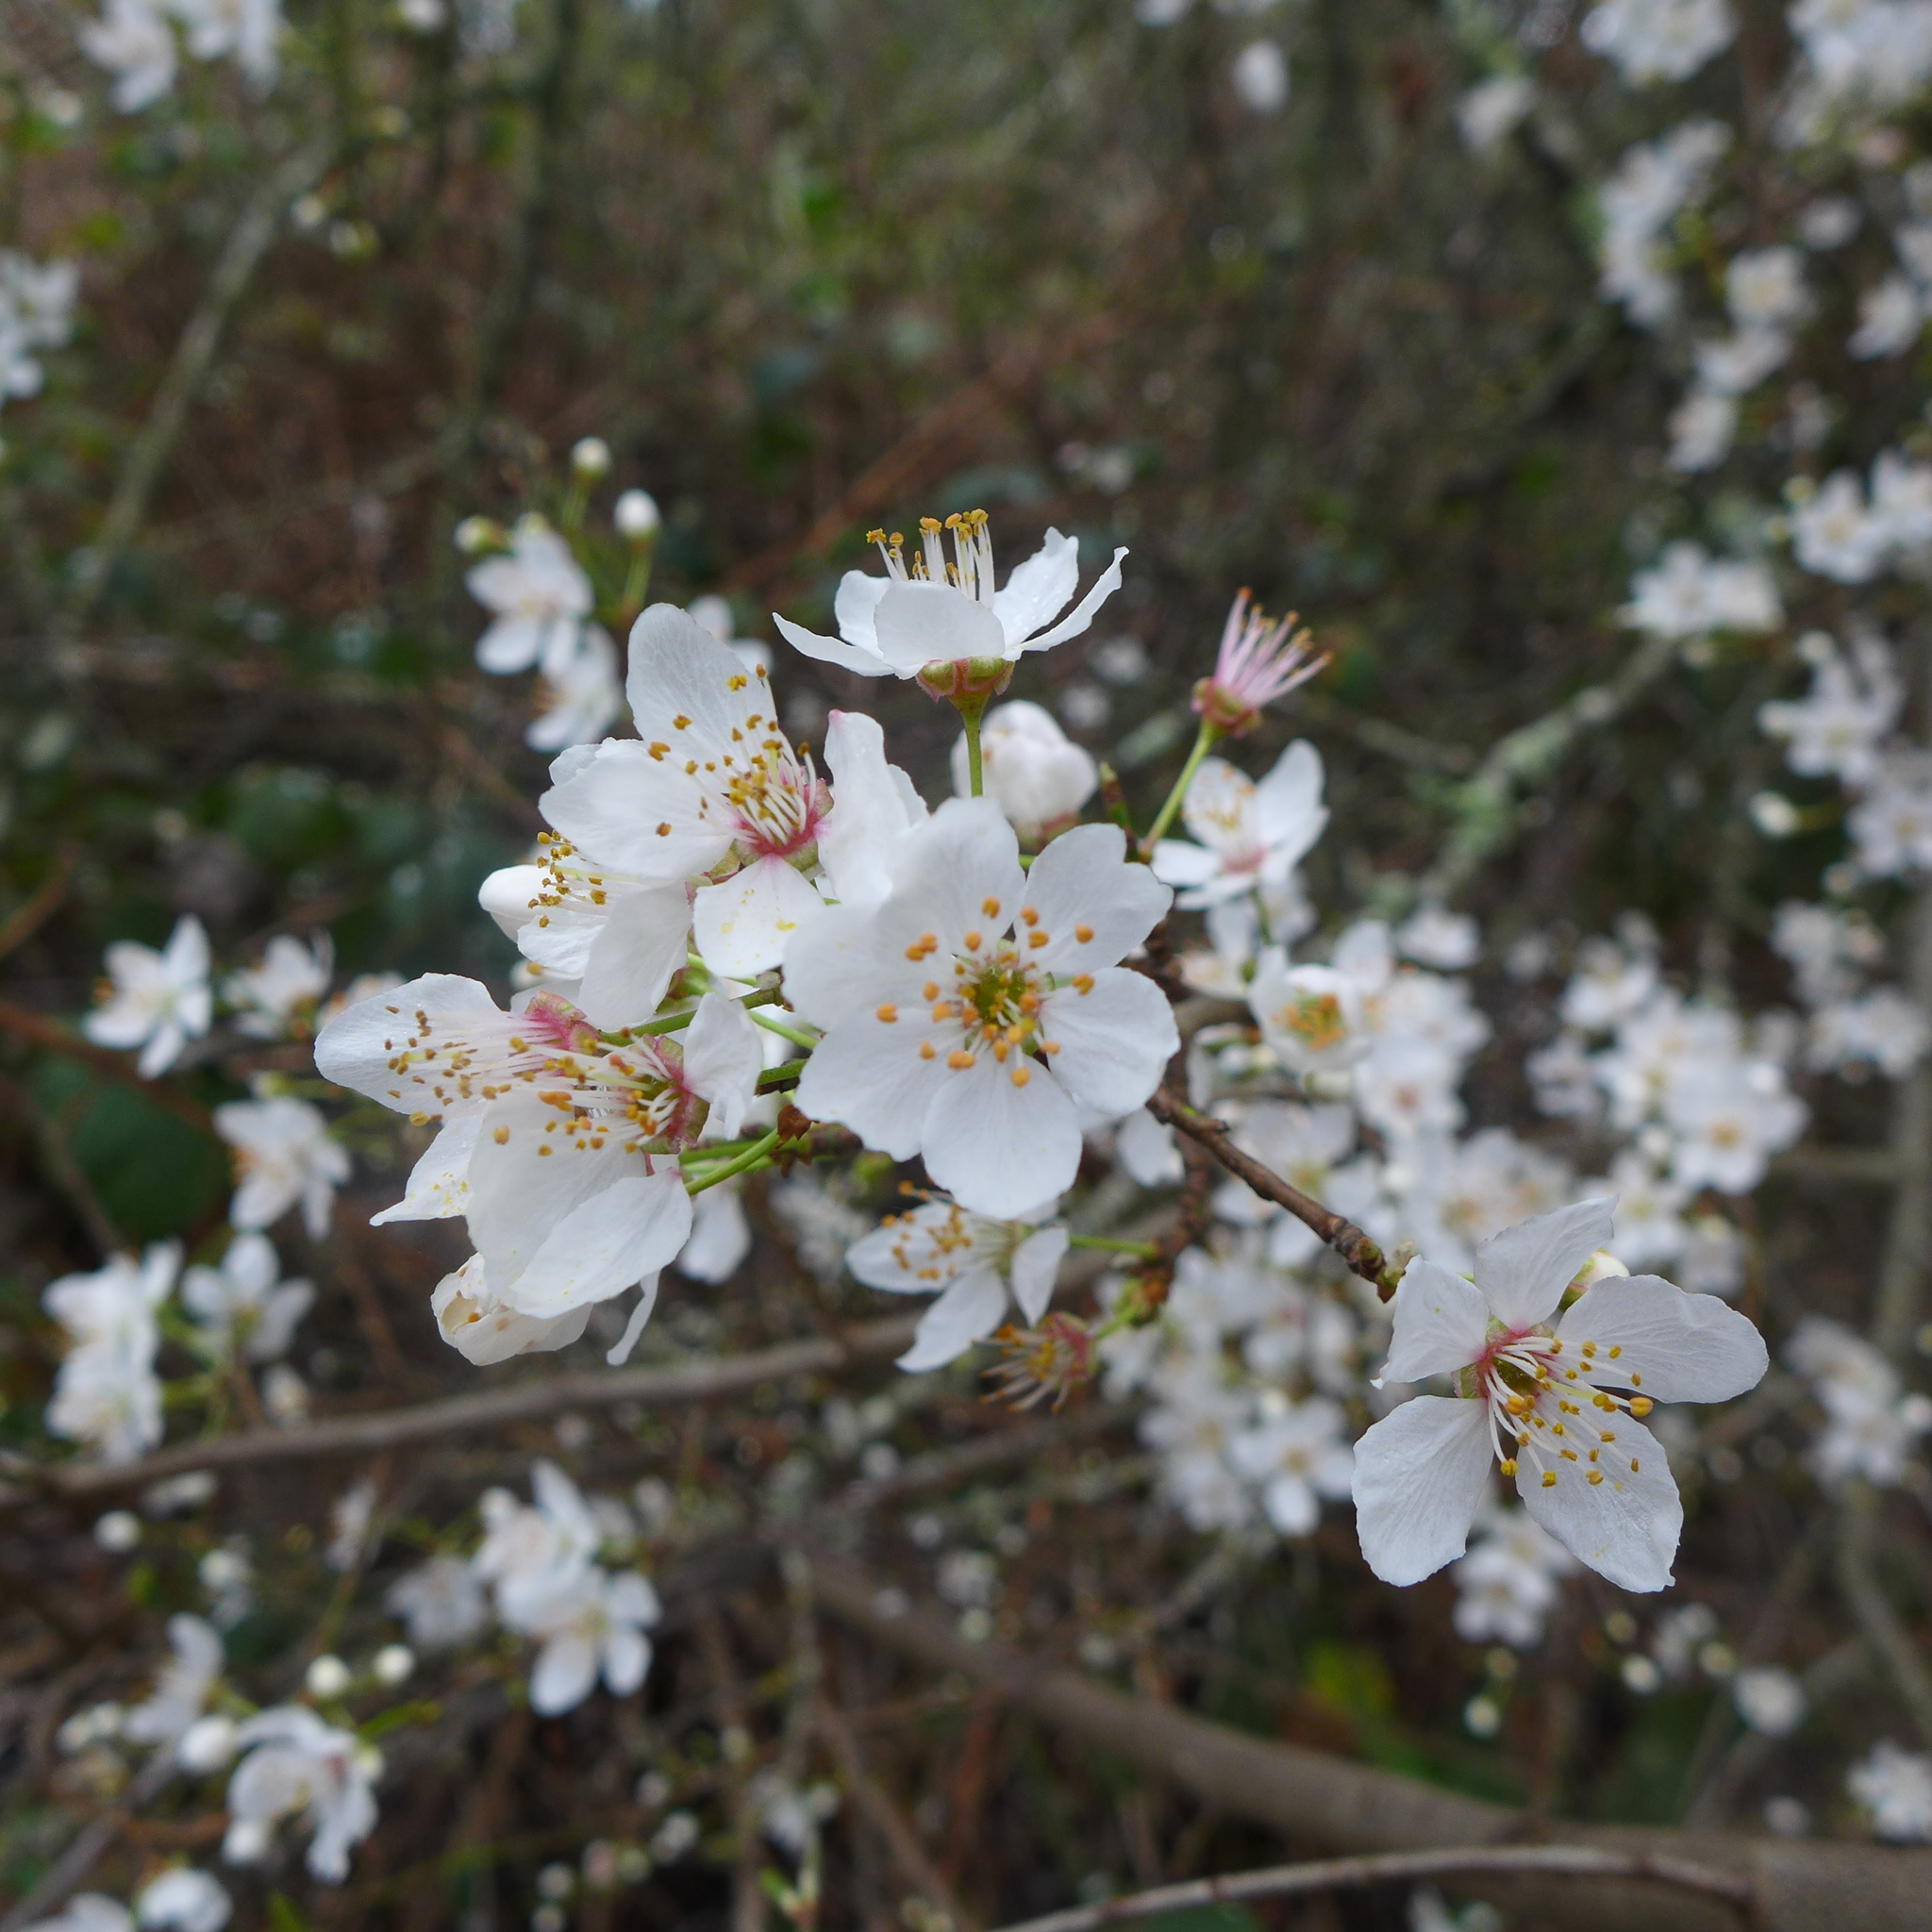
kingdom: Plantae
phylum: Tracheophyta
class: Magnoliopsida
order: Rosales
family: Rosaceae
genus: Prunus
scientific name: Prunus cerasifera
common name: Cherry plum
